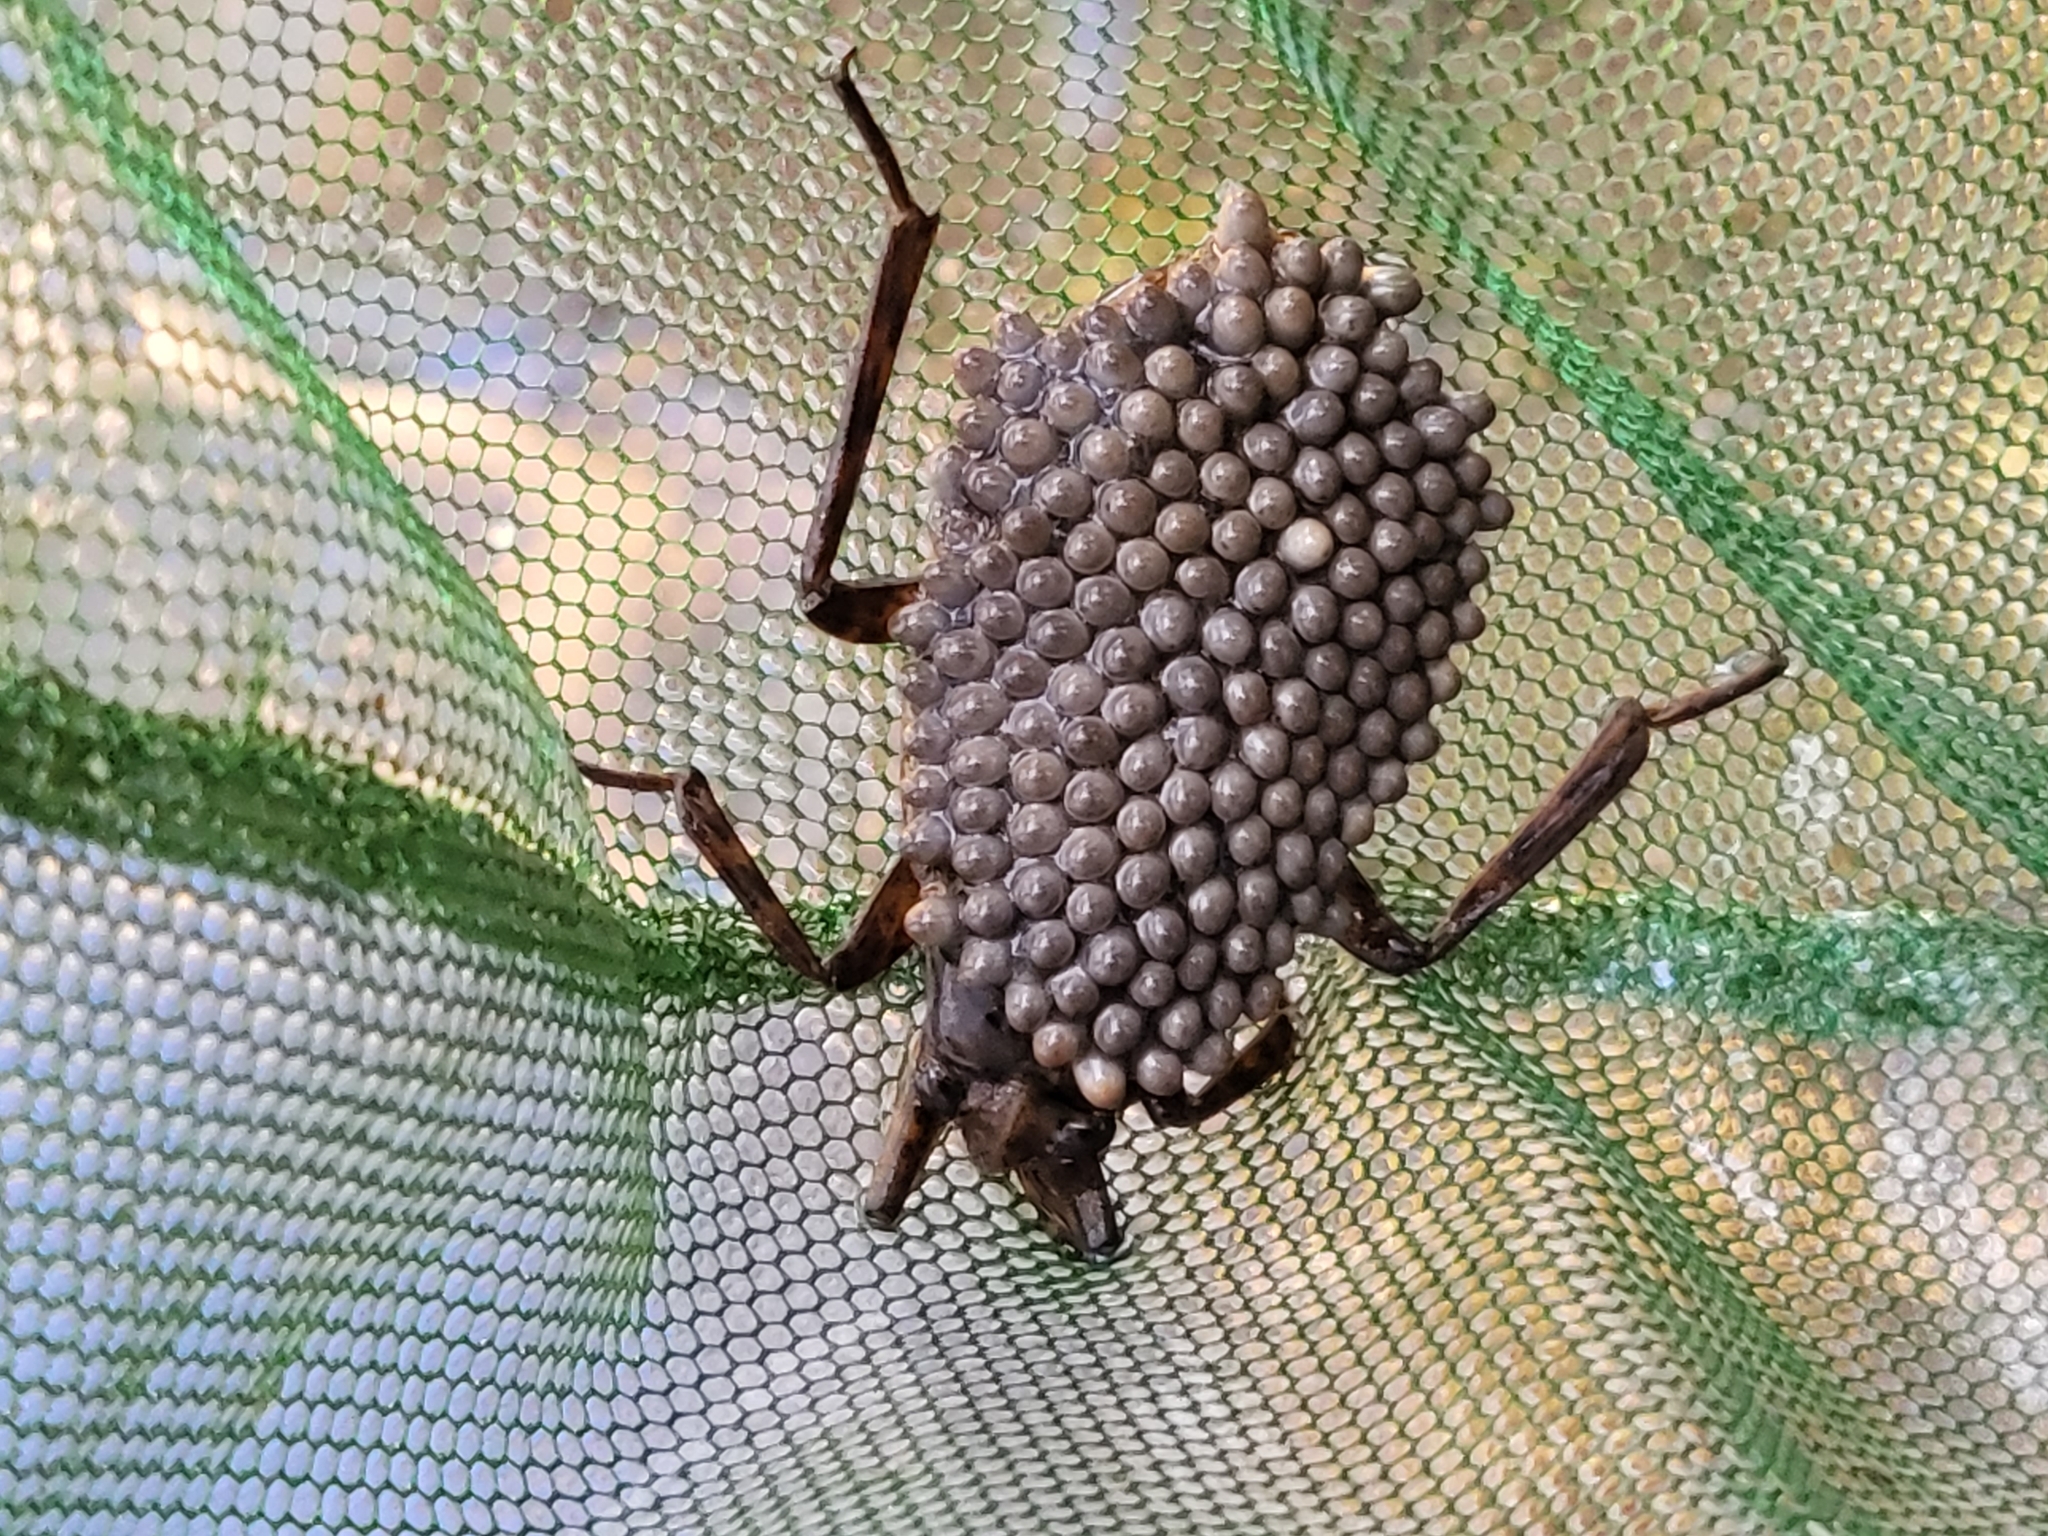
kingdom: Animalia
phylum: Arthropoda
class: Insecta
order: Hemiptera
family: Belostomatidae
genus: Abedus
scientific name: Abedus indentatus
